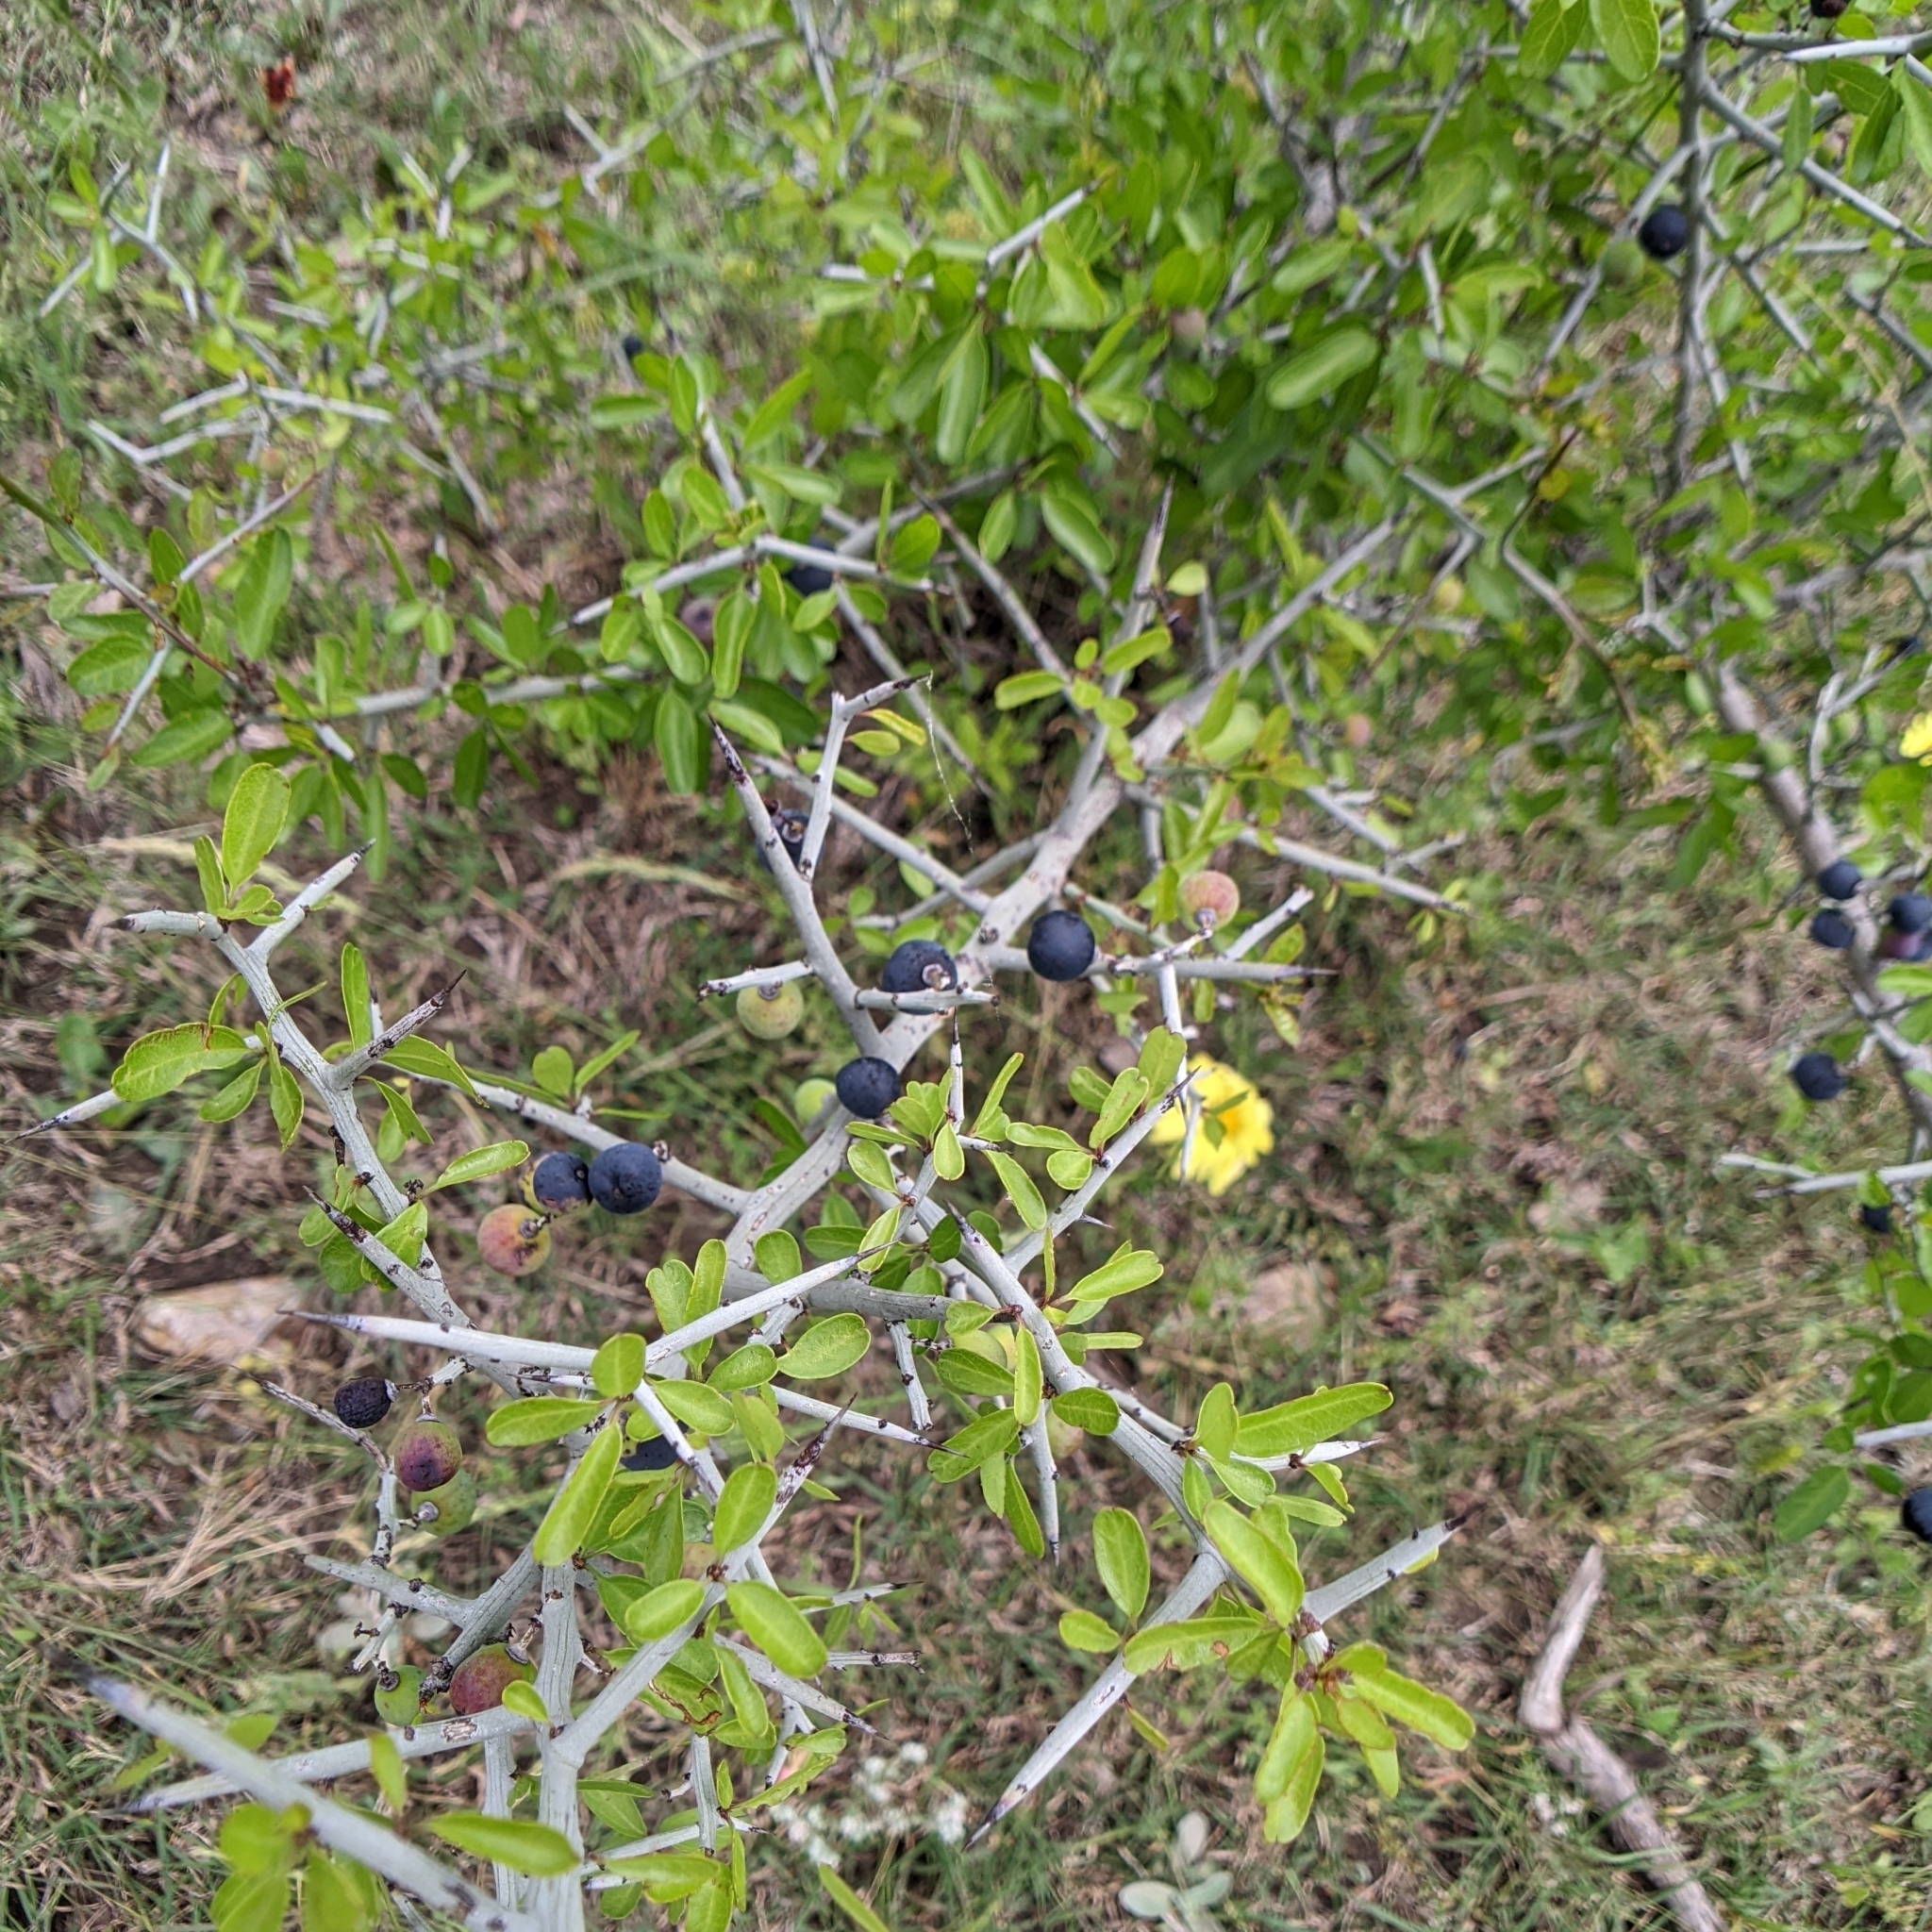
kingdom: Plantae
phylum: Tracheophyta
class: Magnoliopsida
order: Rosales
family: Rhamnaceae
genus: Sarcomphalus
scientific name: Sarcomphalus obtusifolius
